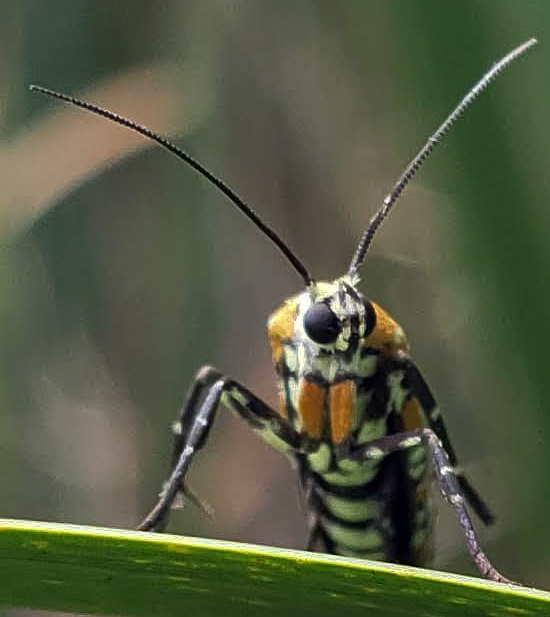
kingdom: Animalia
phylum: Arthropoda
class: Insecta
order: Lepidoptera
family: Attevidae
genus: Atteva
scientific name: Atteva punctella
